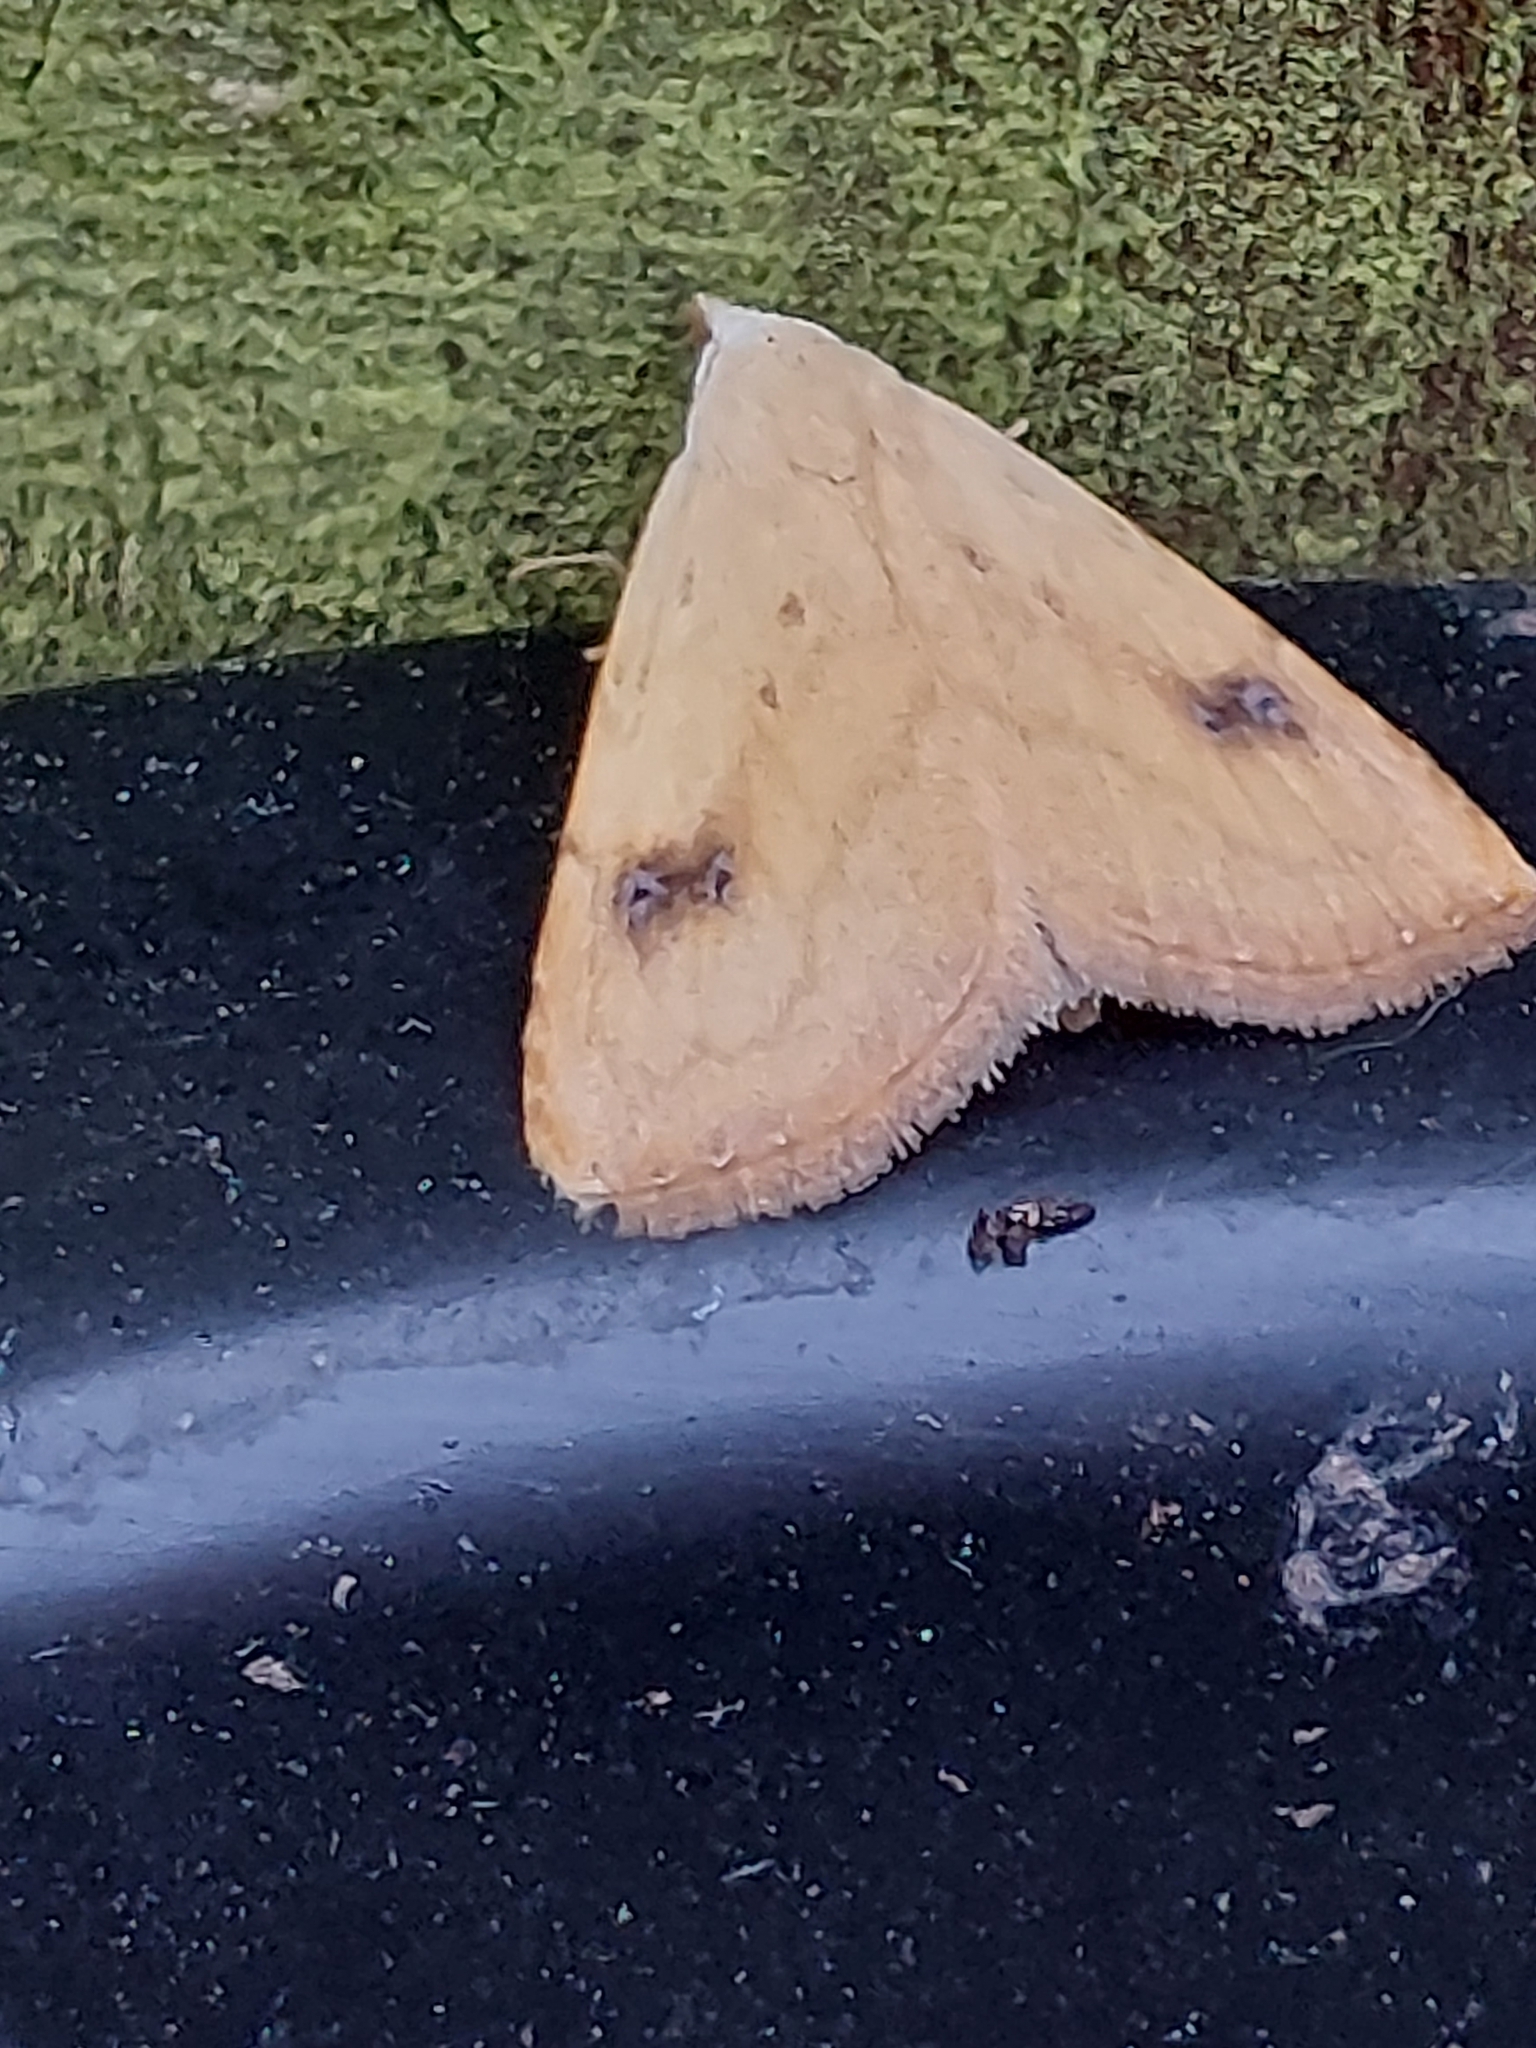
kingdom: Animalia
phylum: Arthropoda
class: Insecta
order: Lepidoptera
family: Erebidae
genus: Rivula
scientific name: Rivula sericealis
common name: Straw dot
